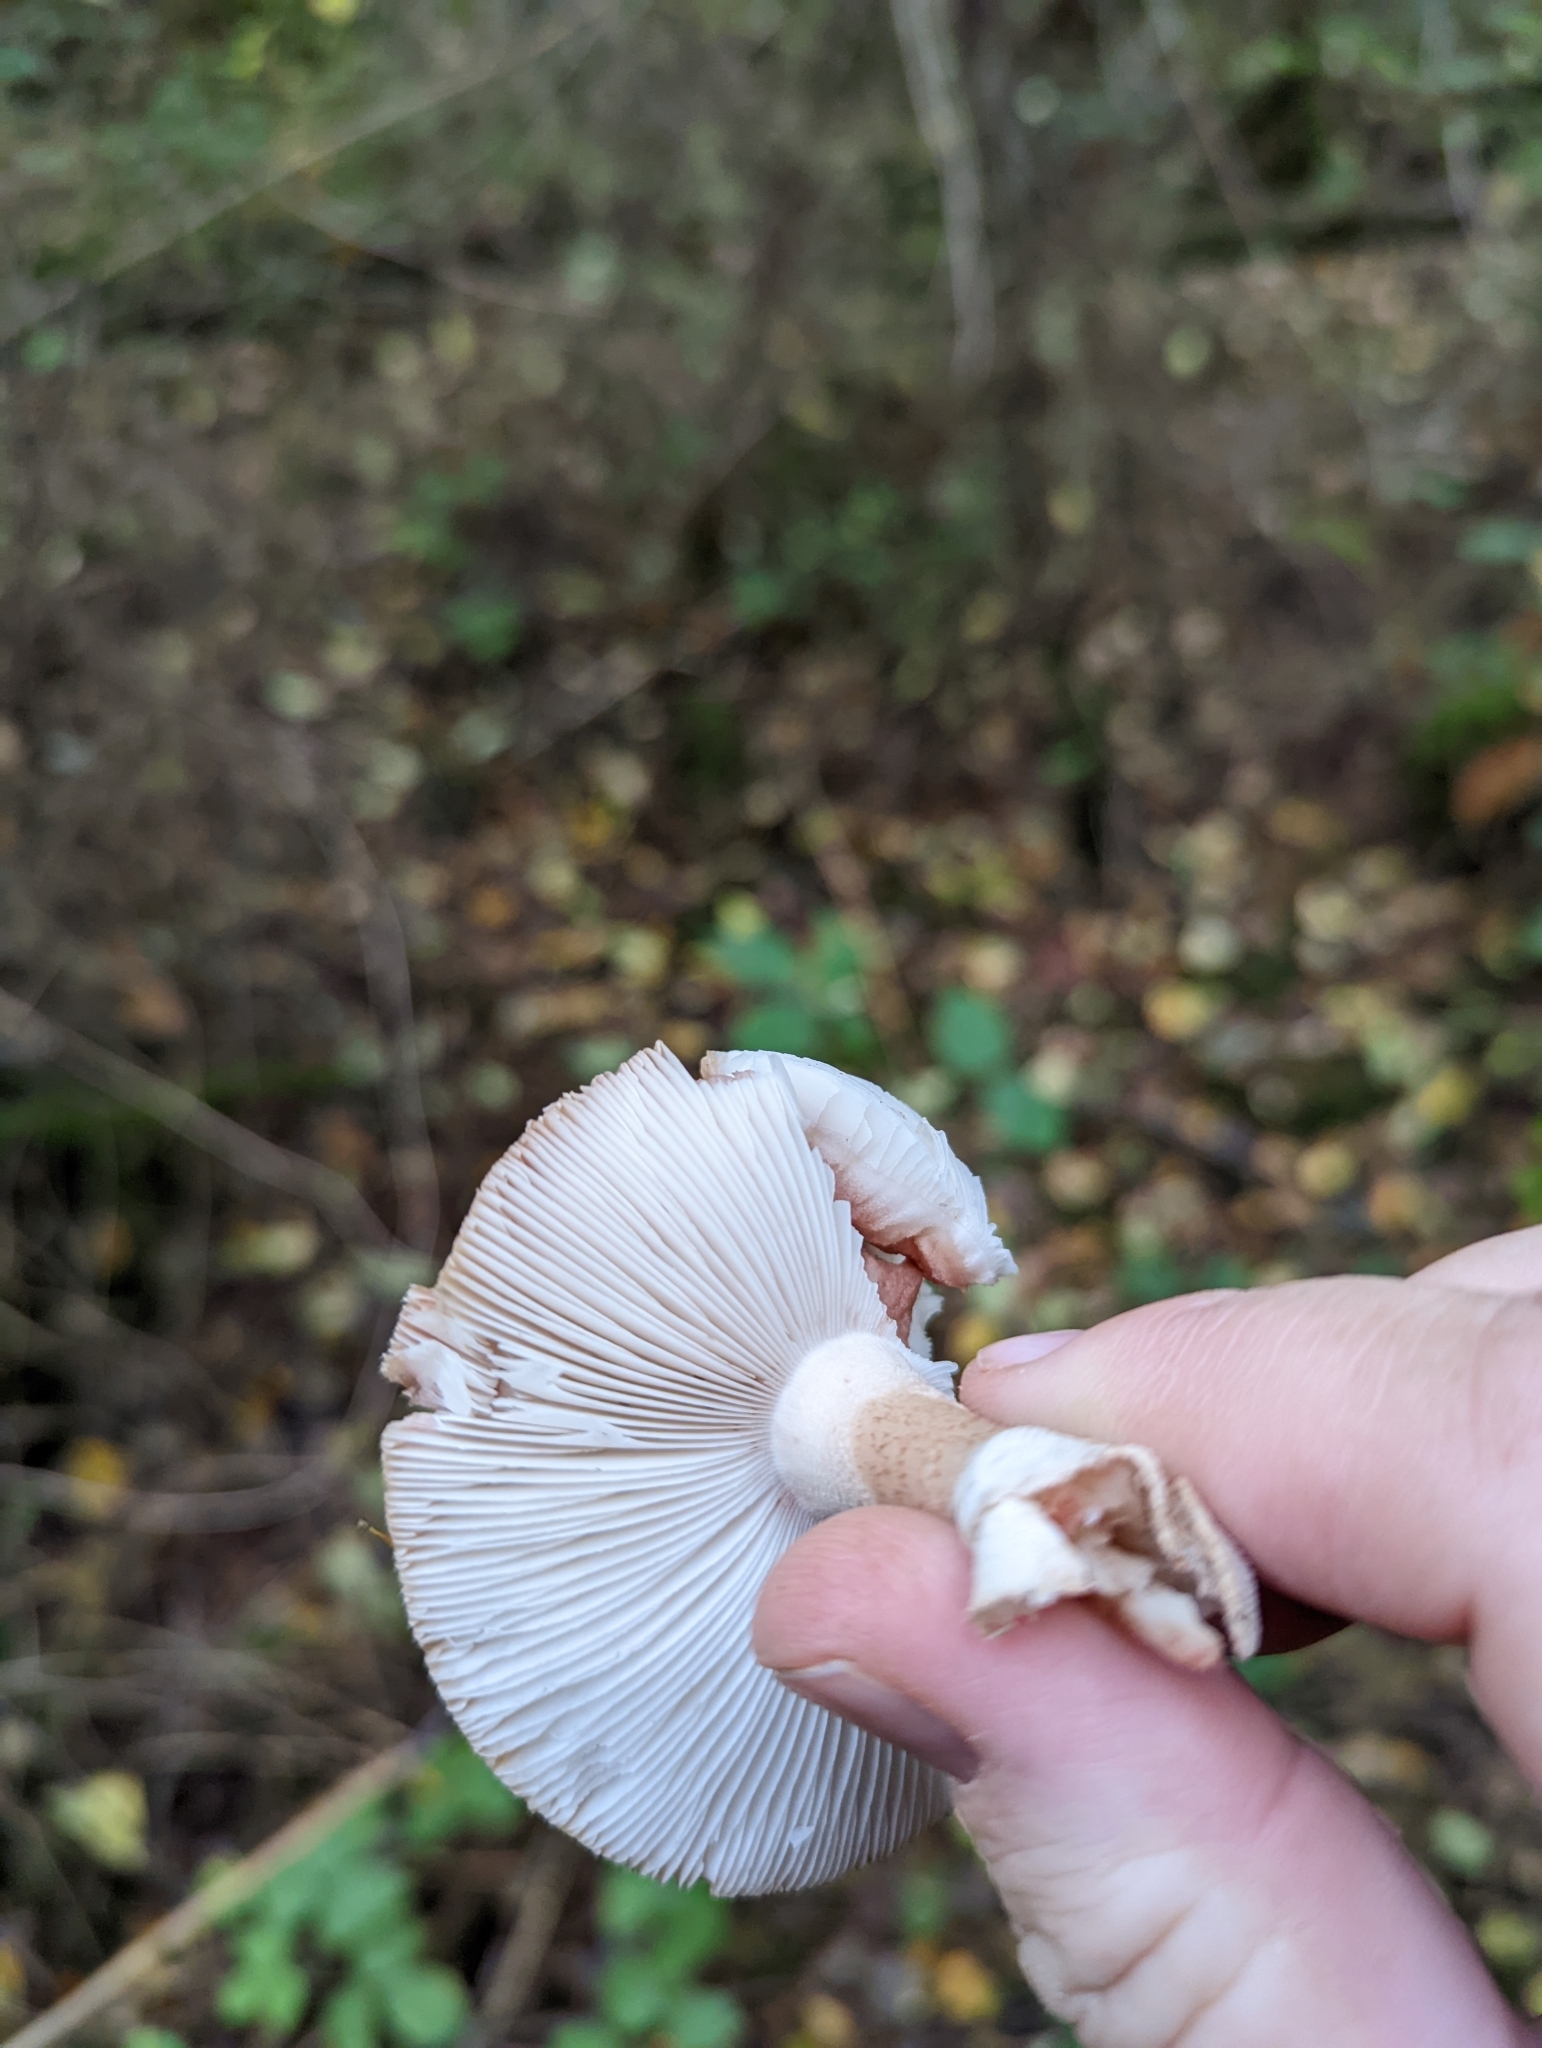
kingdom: Fungi
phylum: Basidiomycota
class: Agaricomycetes
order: Agaricales
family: Amanitaceae
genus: Amanita
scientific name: Amanita rubescens
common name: Blusher
